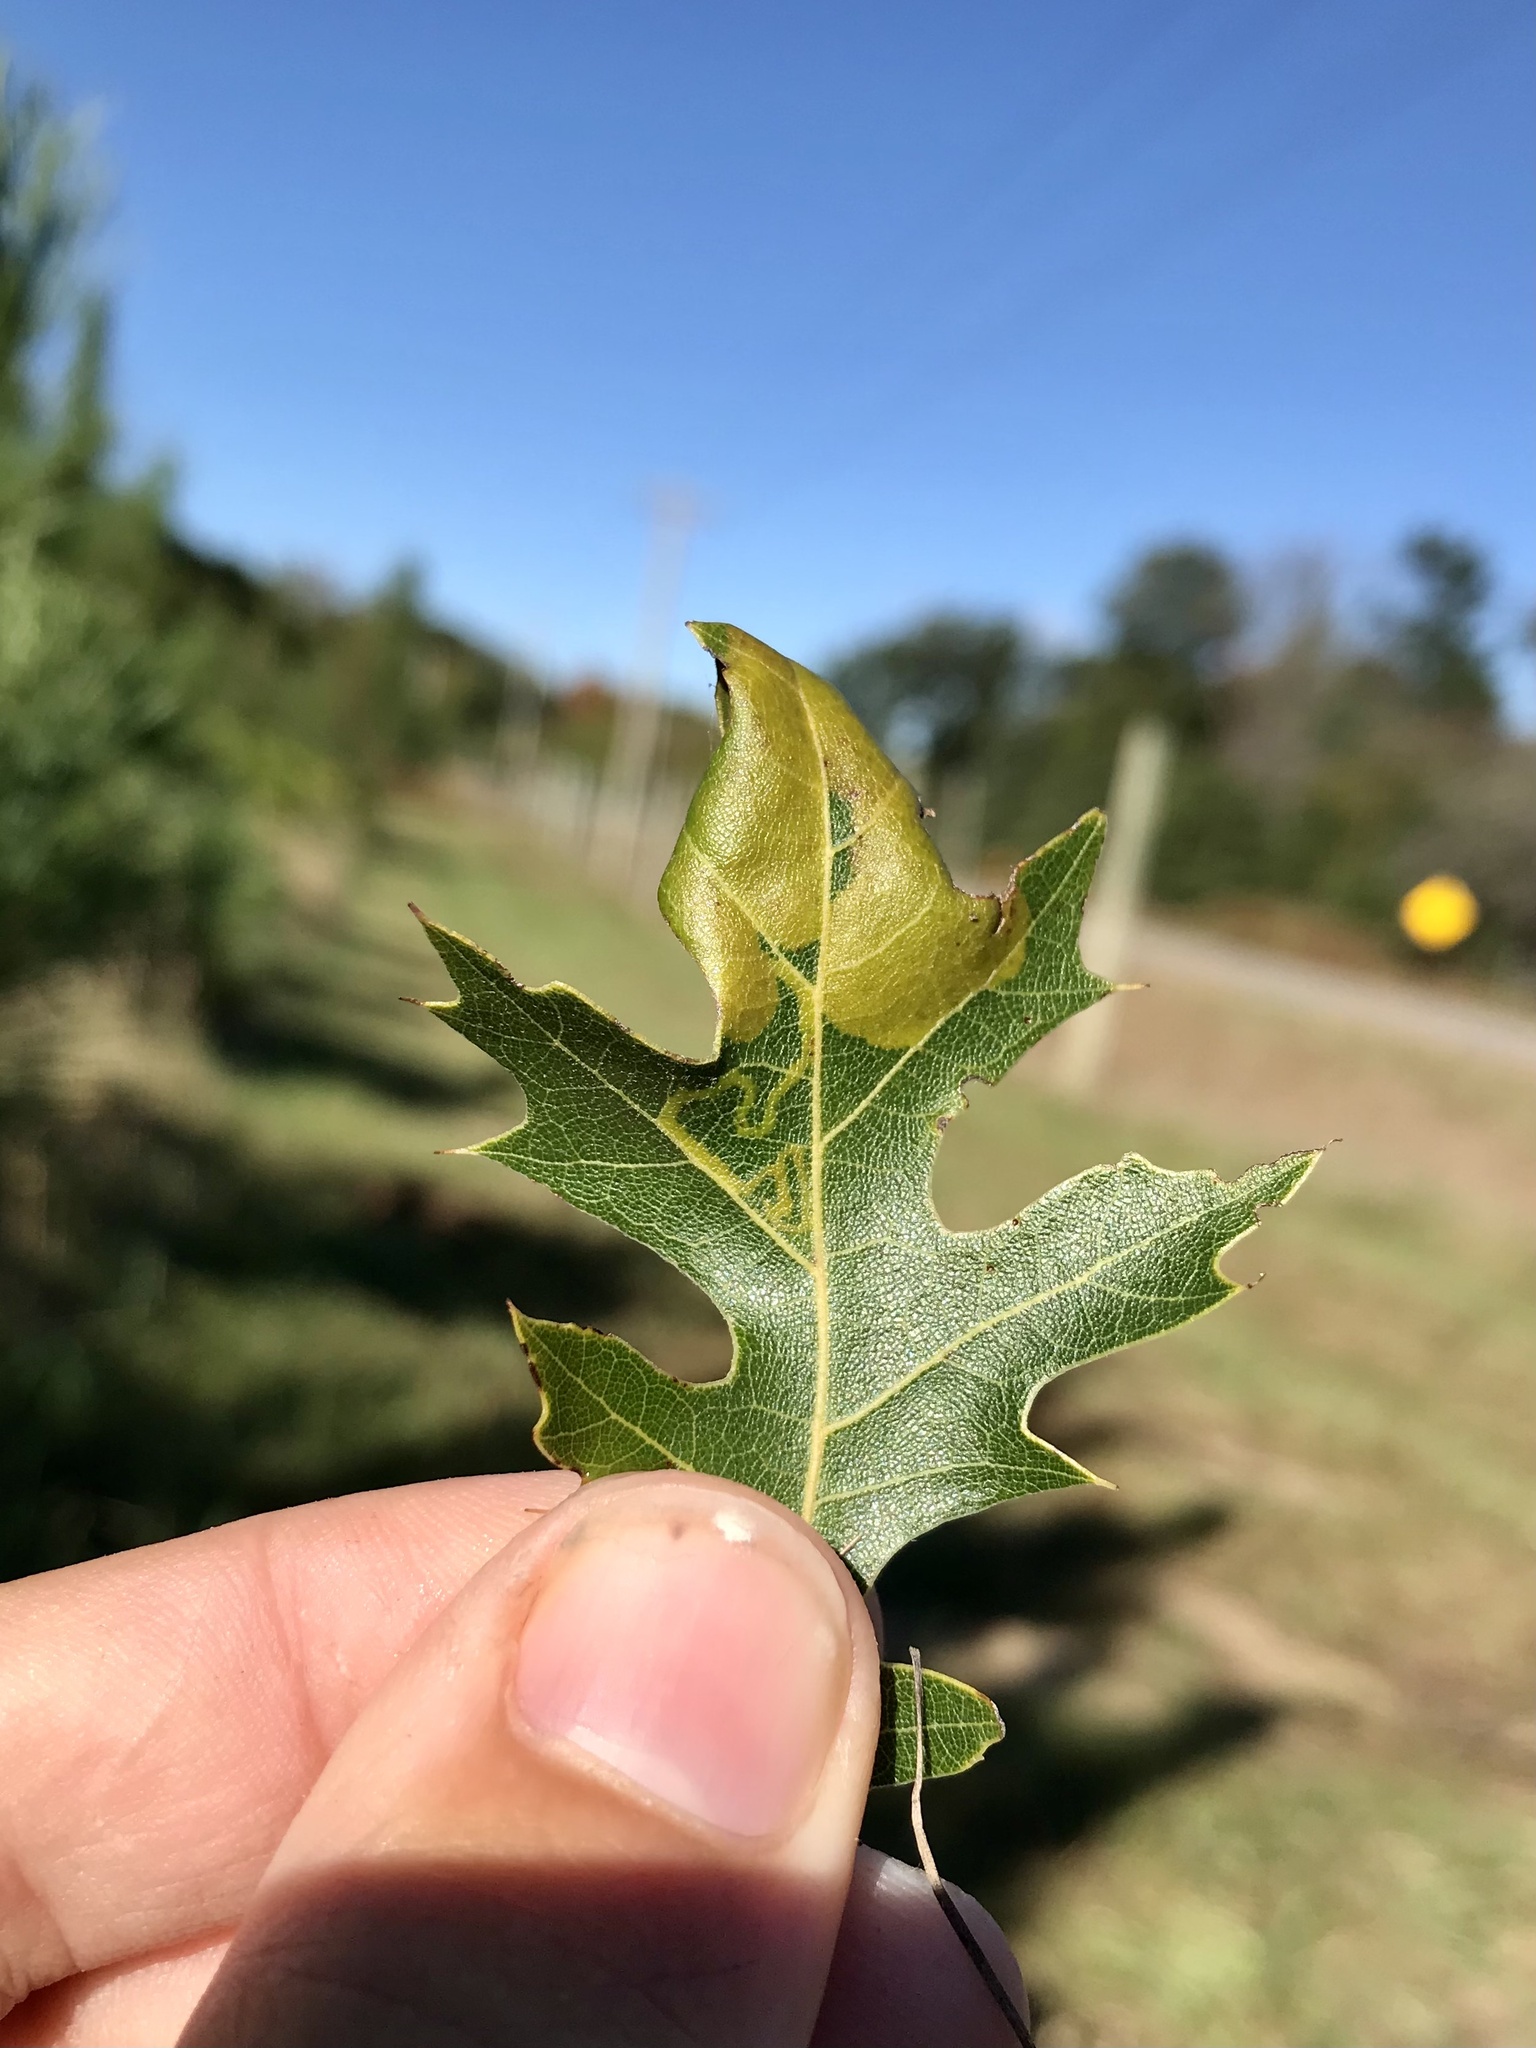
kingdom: Animalia
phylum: Arthropoda
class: Insecta
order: Lepidoptera
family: Gracillariidae
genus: Acrocercops
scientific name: Acrocercops albinatella
